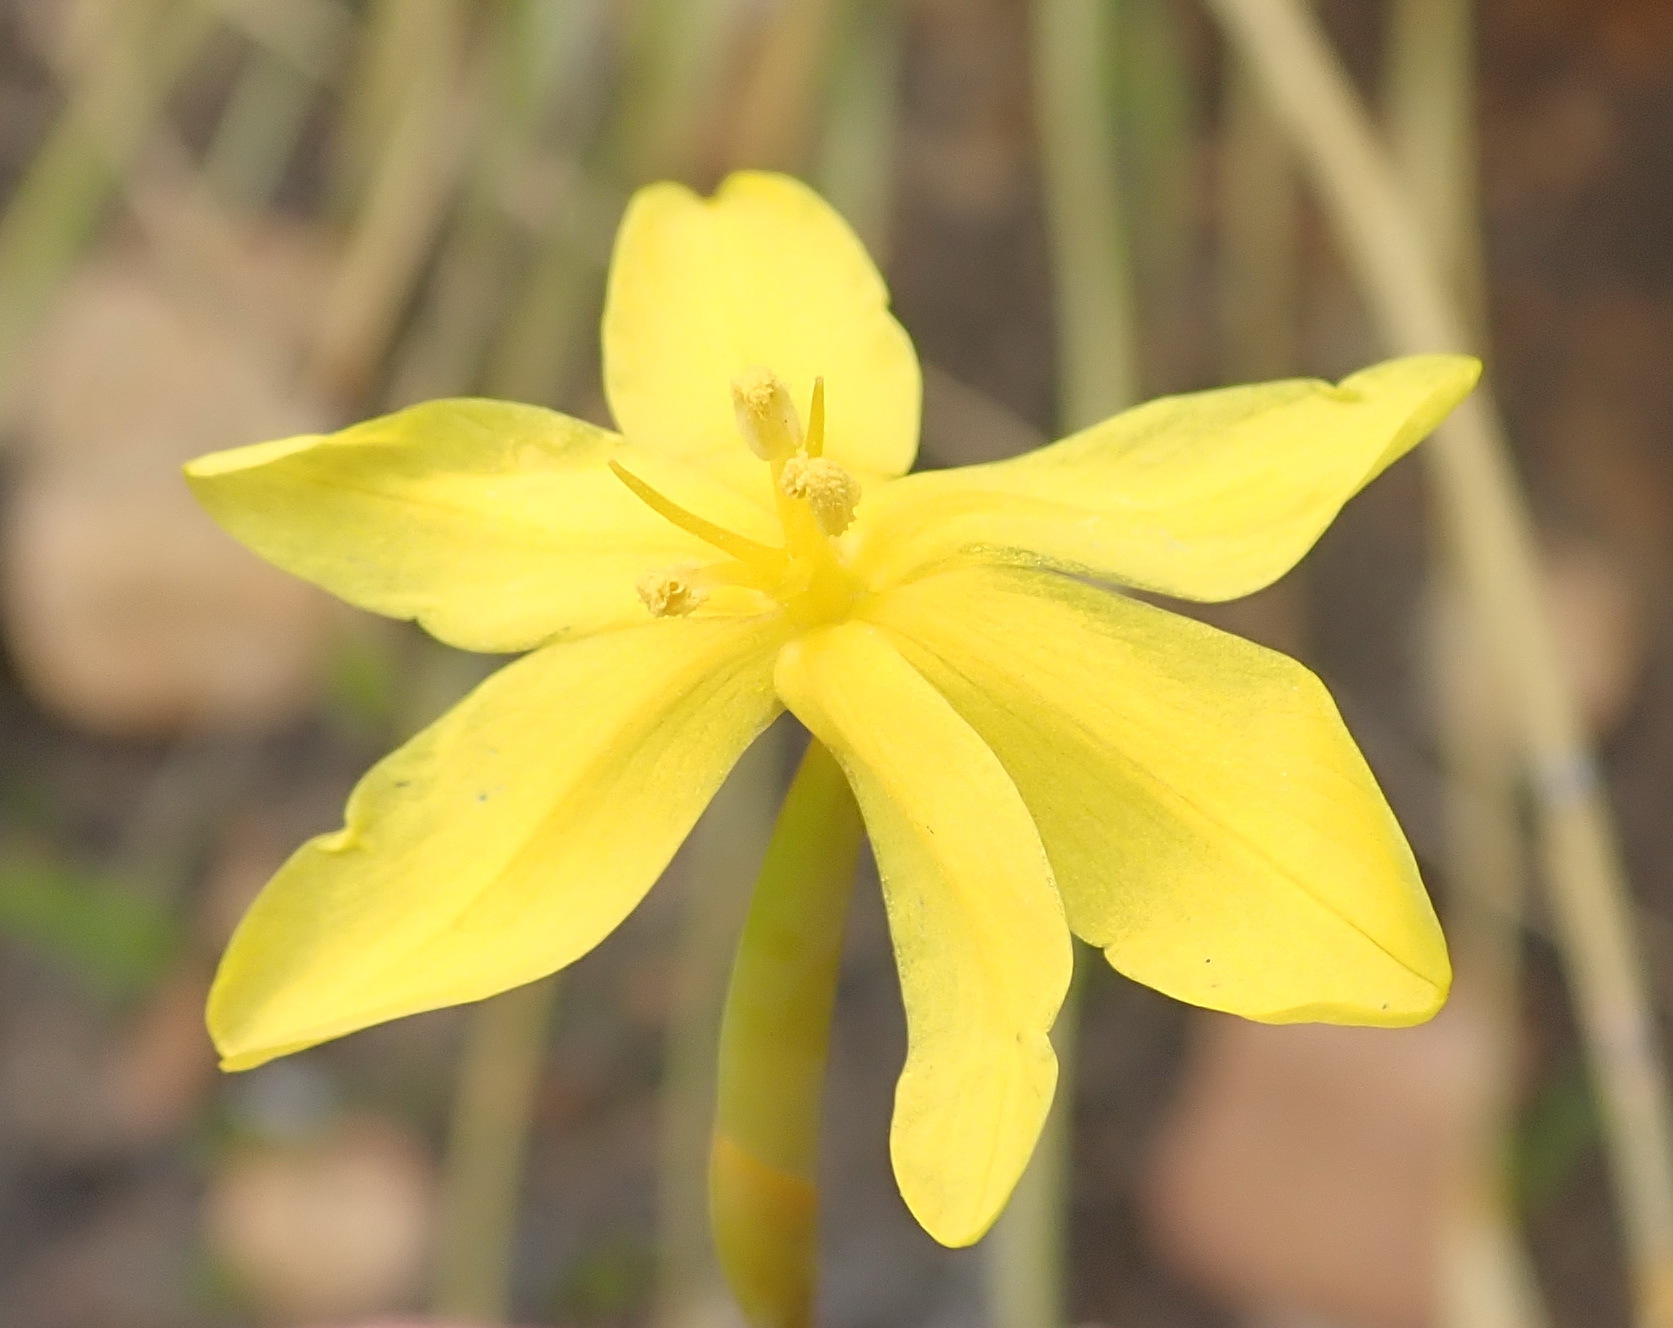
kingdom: Plantae
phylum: Tracheophyta
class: Liliopsida
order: Asparagales
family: Iridaceae
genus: Bobartia
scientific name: Bobartia paniculata
